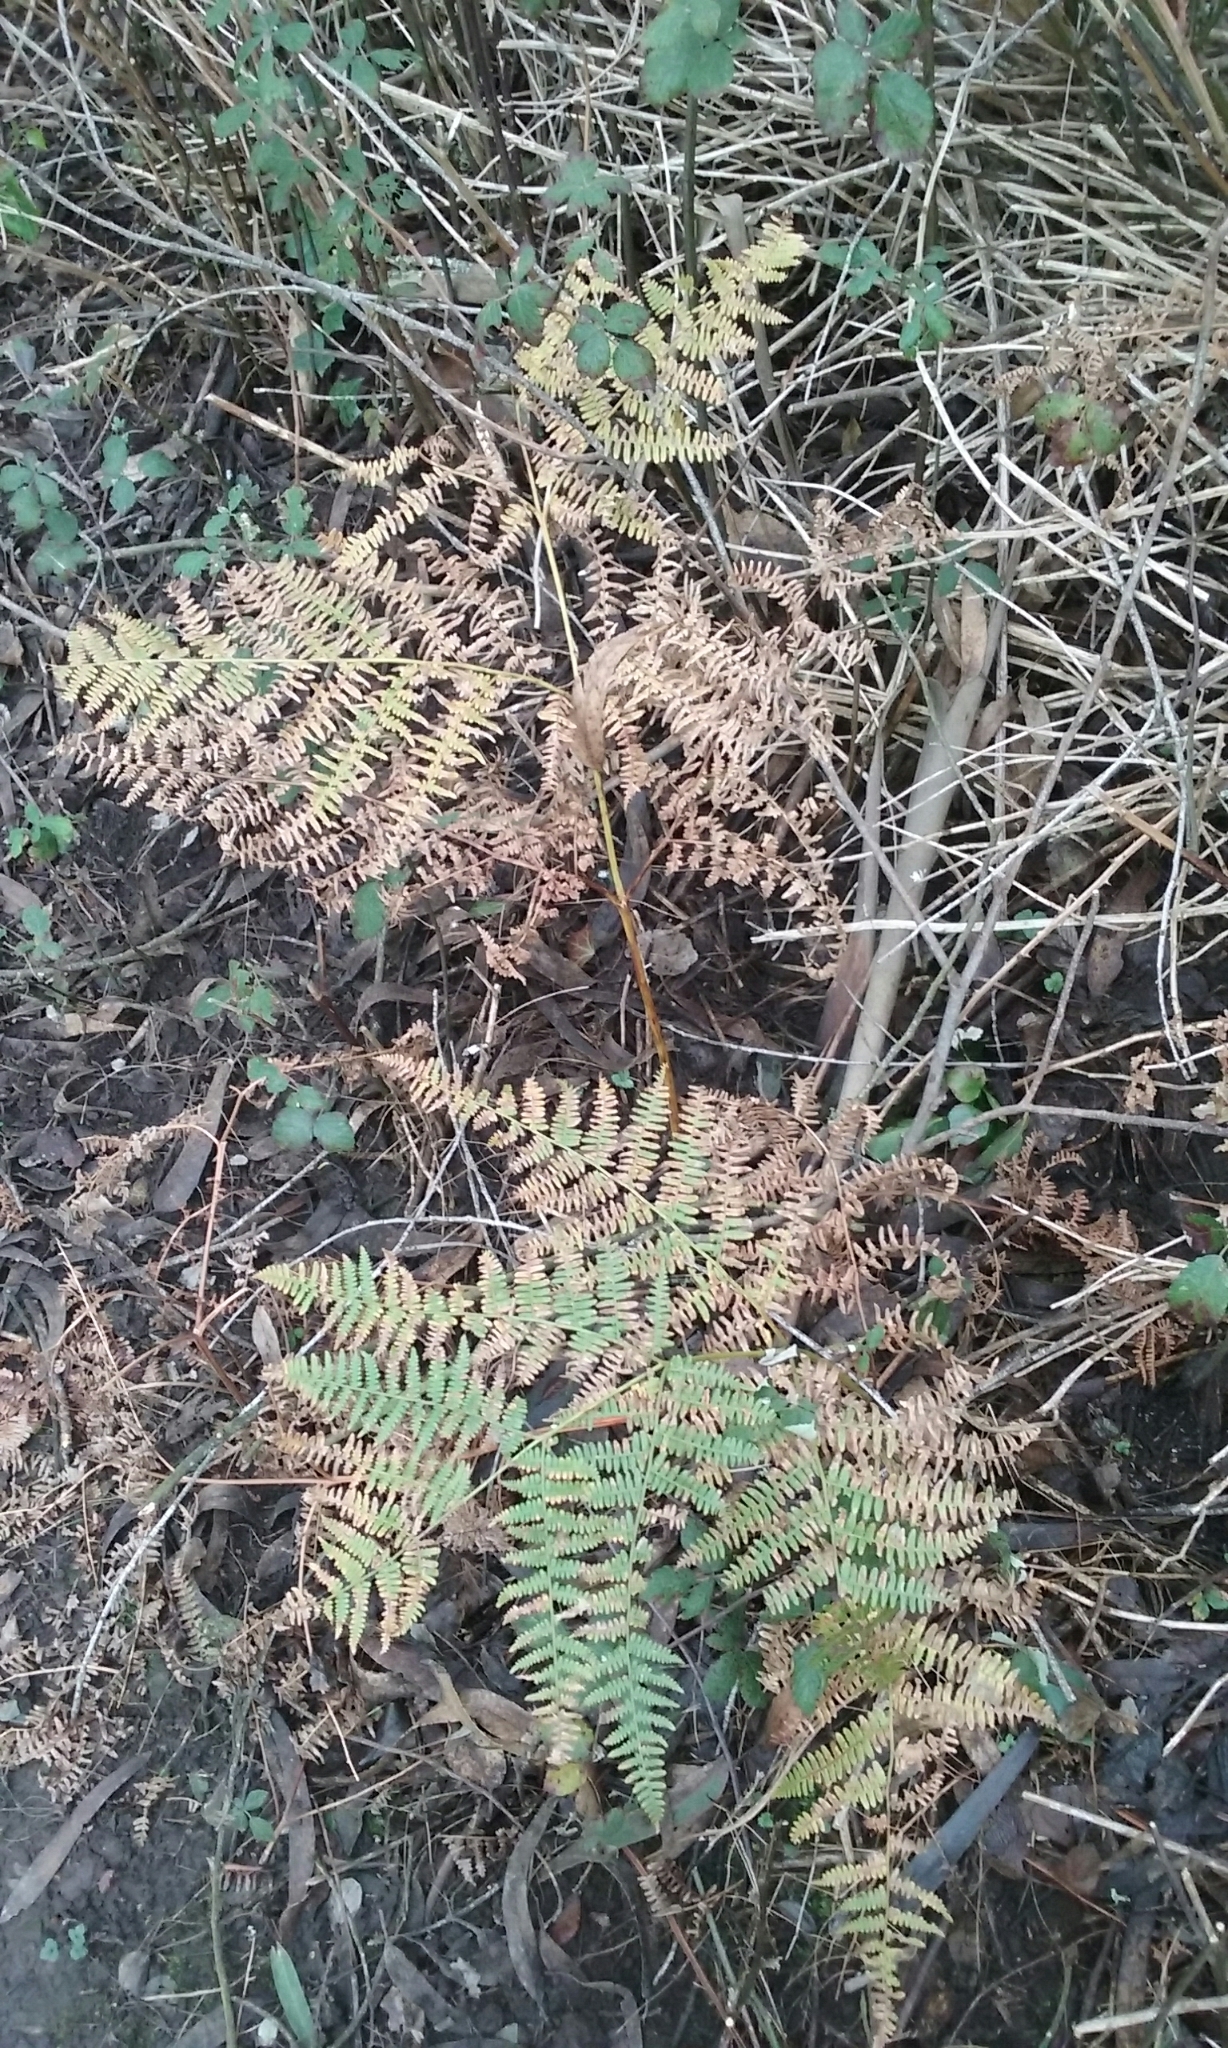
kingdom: Plantae
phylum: Tracheophyta
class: Polypodiopsida
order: Polypodiales
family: Dennstaedtiaceae
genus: Pteridium
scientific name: Pteridium aquilinum
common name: Bracken
